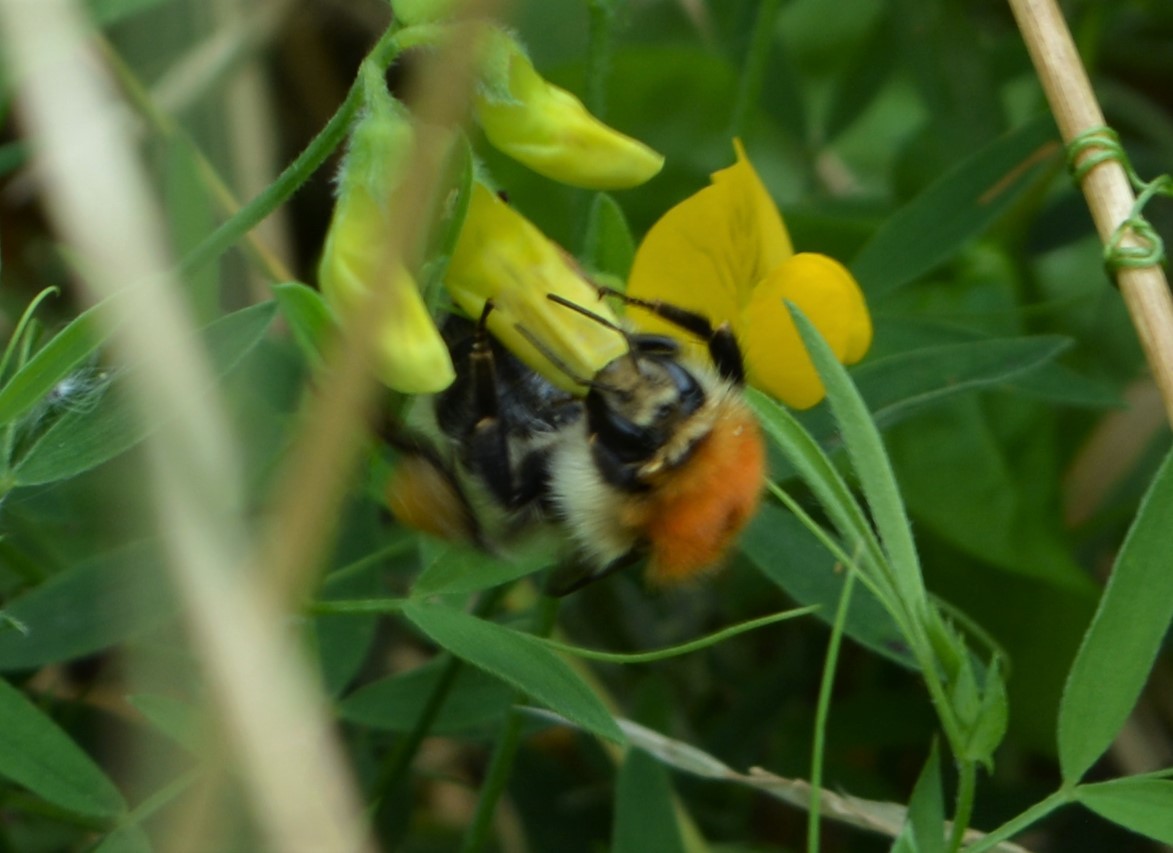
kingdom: Animalia
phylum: Arthropoda
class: Insecta
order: Hymenoptera
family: Apidae
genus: Bombus
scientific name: Bombus pascuorum
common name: Common carder bee
